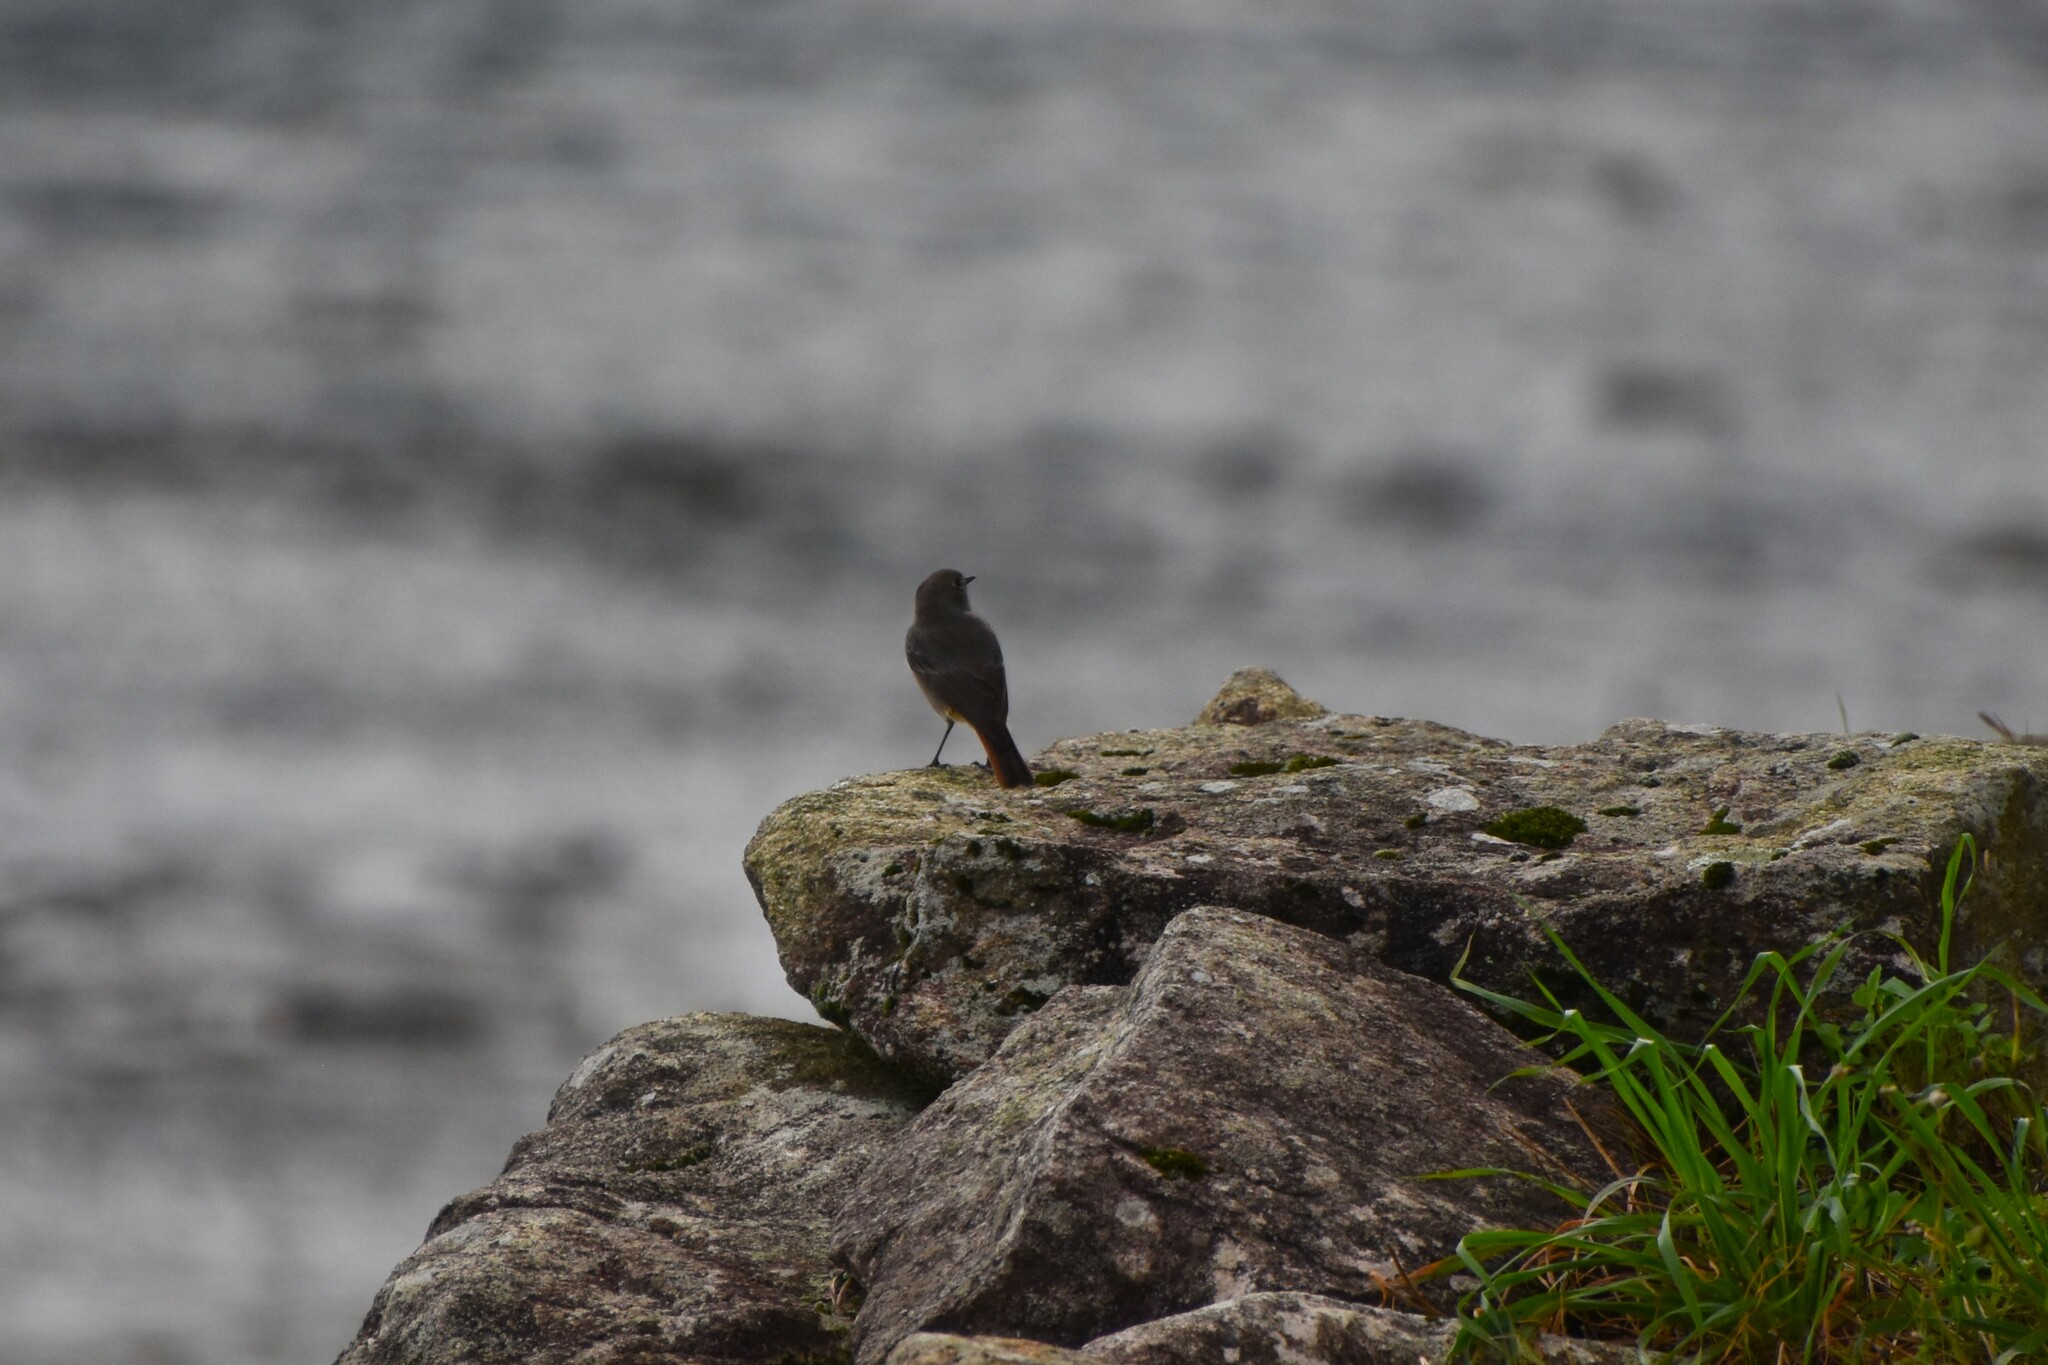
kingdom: Animalia
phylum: Chordata
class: Aves
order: Passeriformes
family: Muscicapidae
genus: Phoenicurus
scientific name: Phoenicurus ochruros
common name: Black redstart
